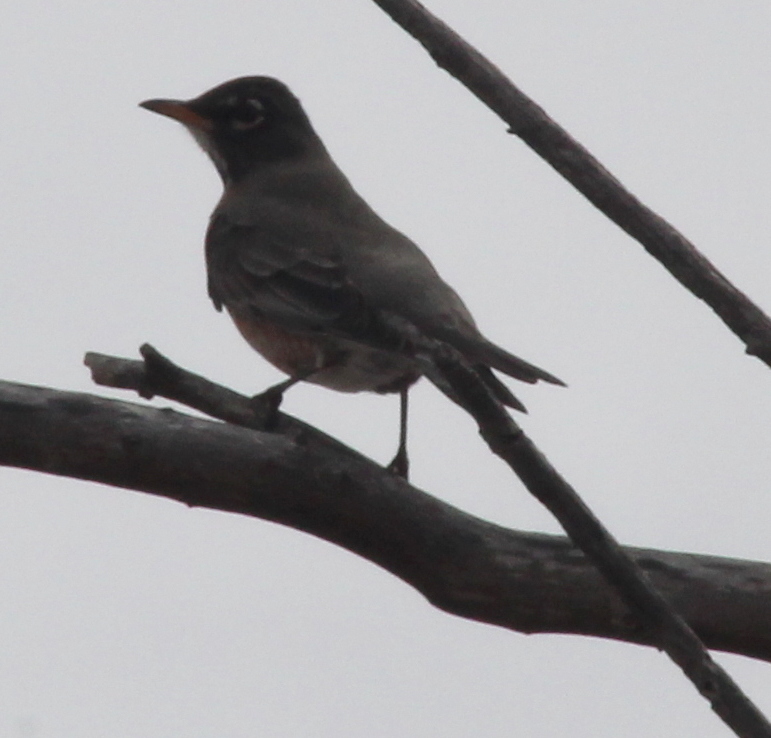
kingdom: Animalia
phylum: Chordata
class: Aves
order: Passeriformes
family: Turdidae
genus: Turdus
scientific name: Turdus migratorius
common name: American robin
